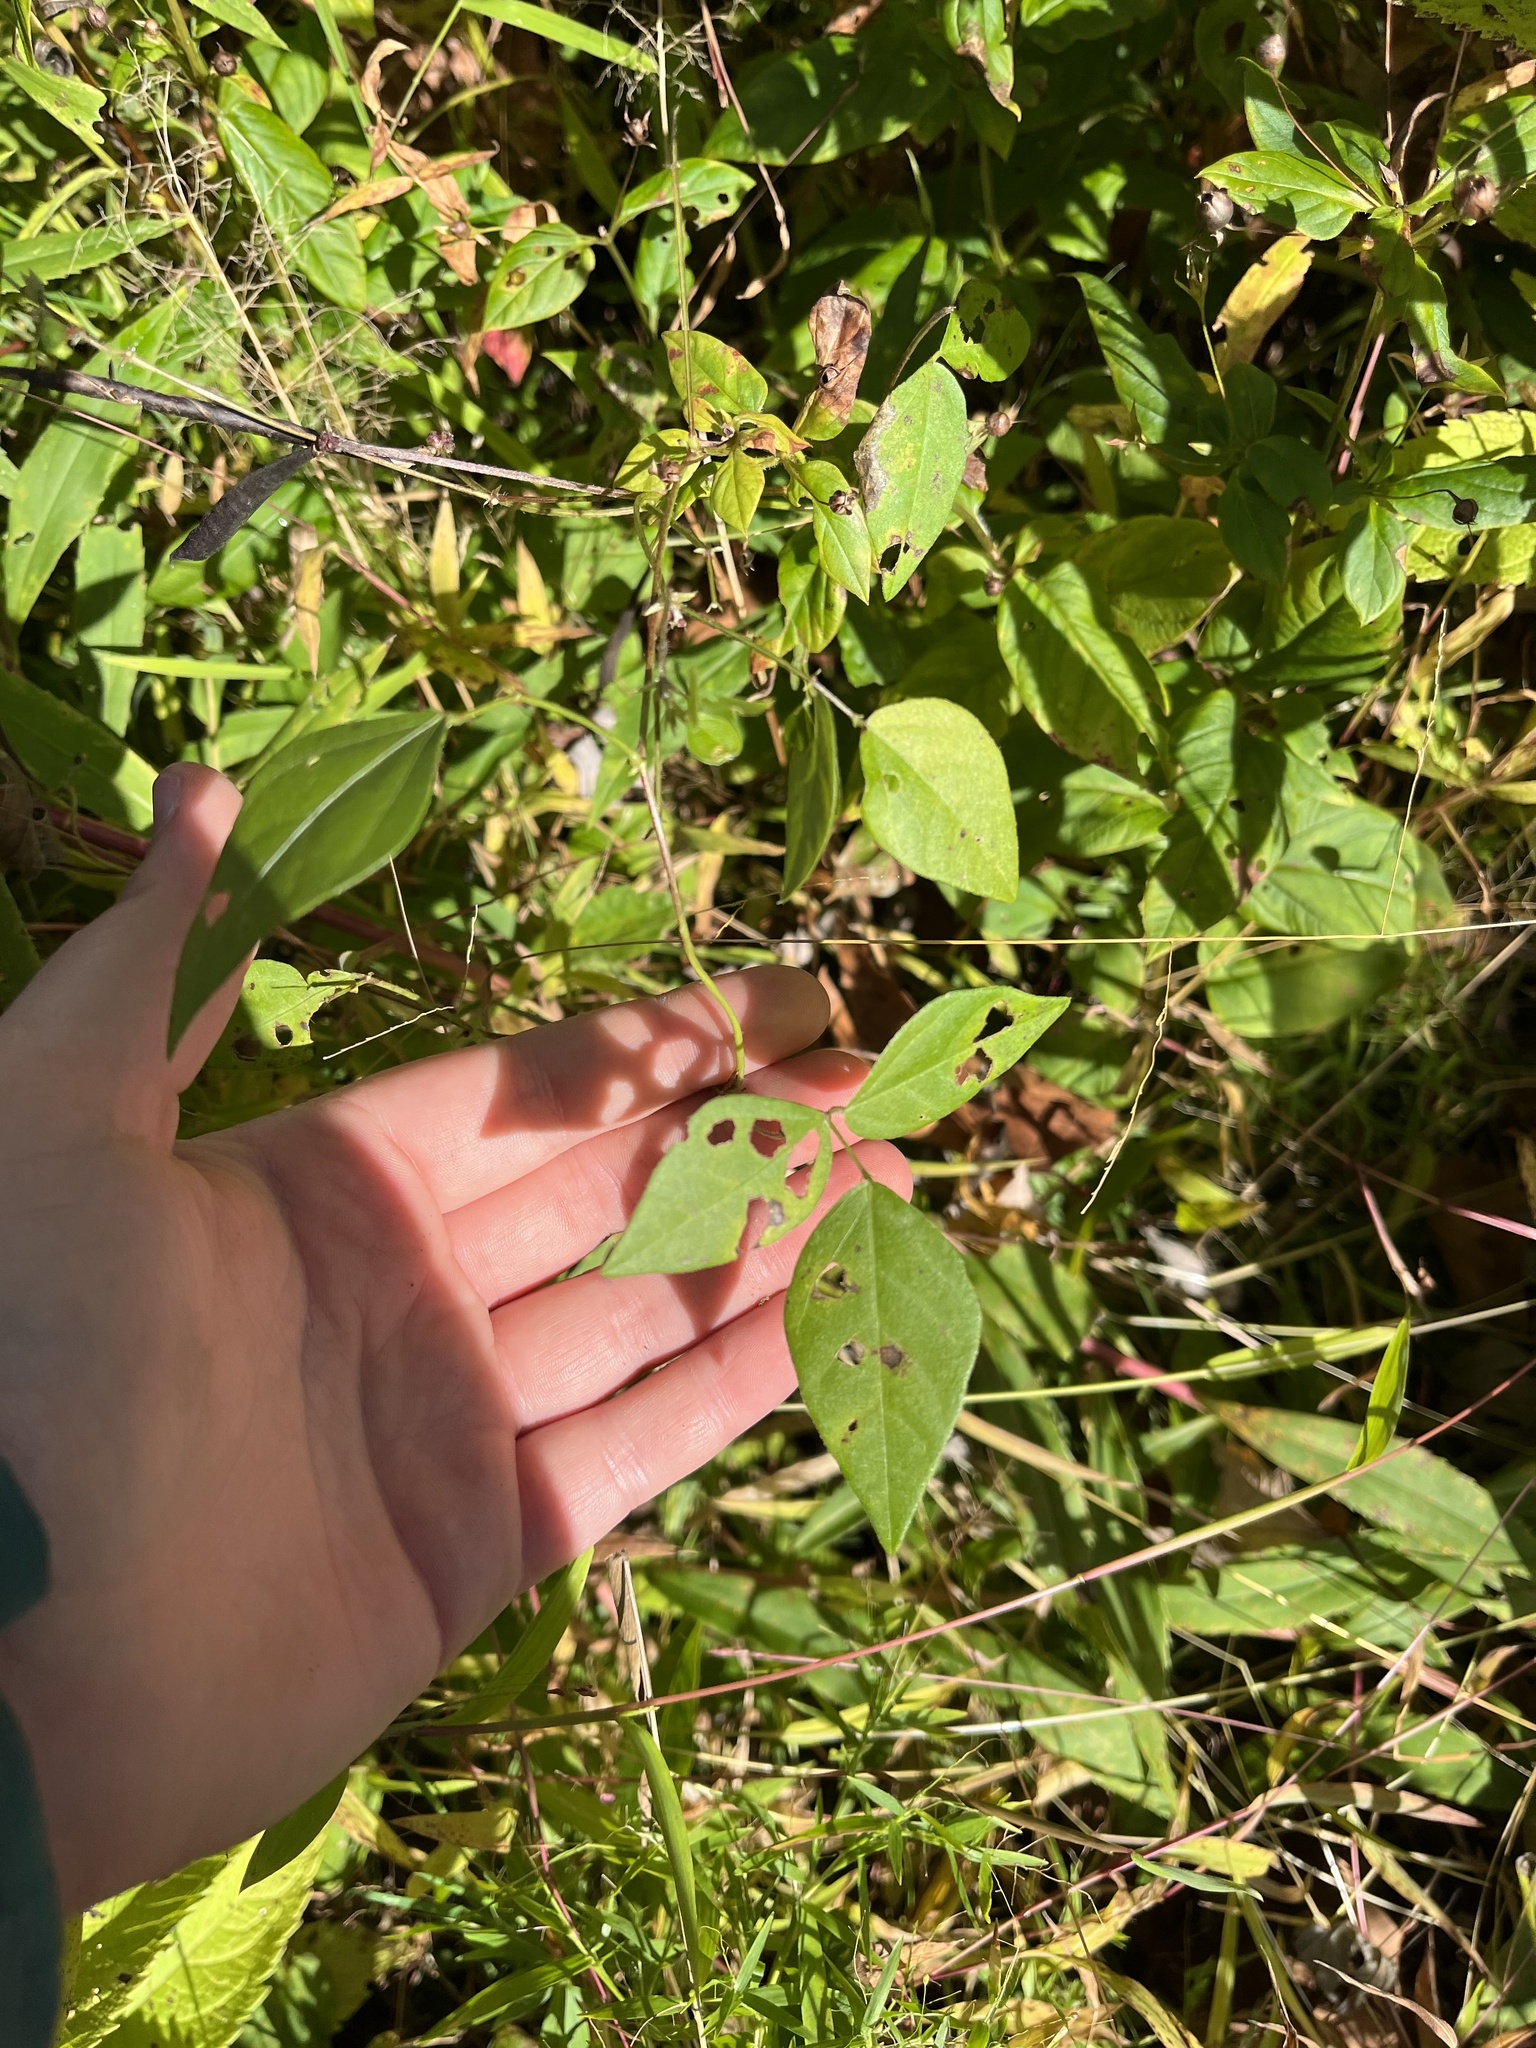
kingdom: Plantae
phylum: Tracheophyta
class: Magnoliopsida
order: Fabales
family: Fabaceae
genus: Apios
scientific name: Apios americana
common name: American potato-bean
